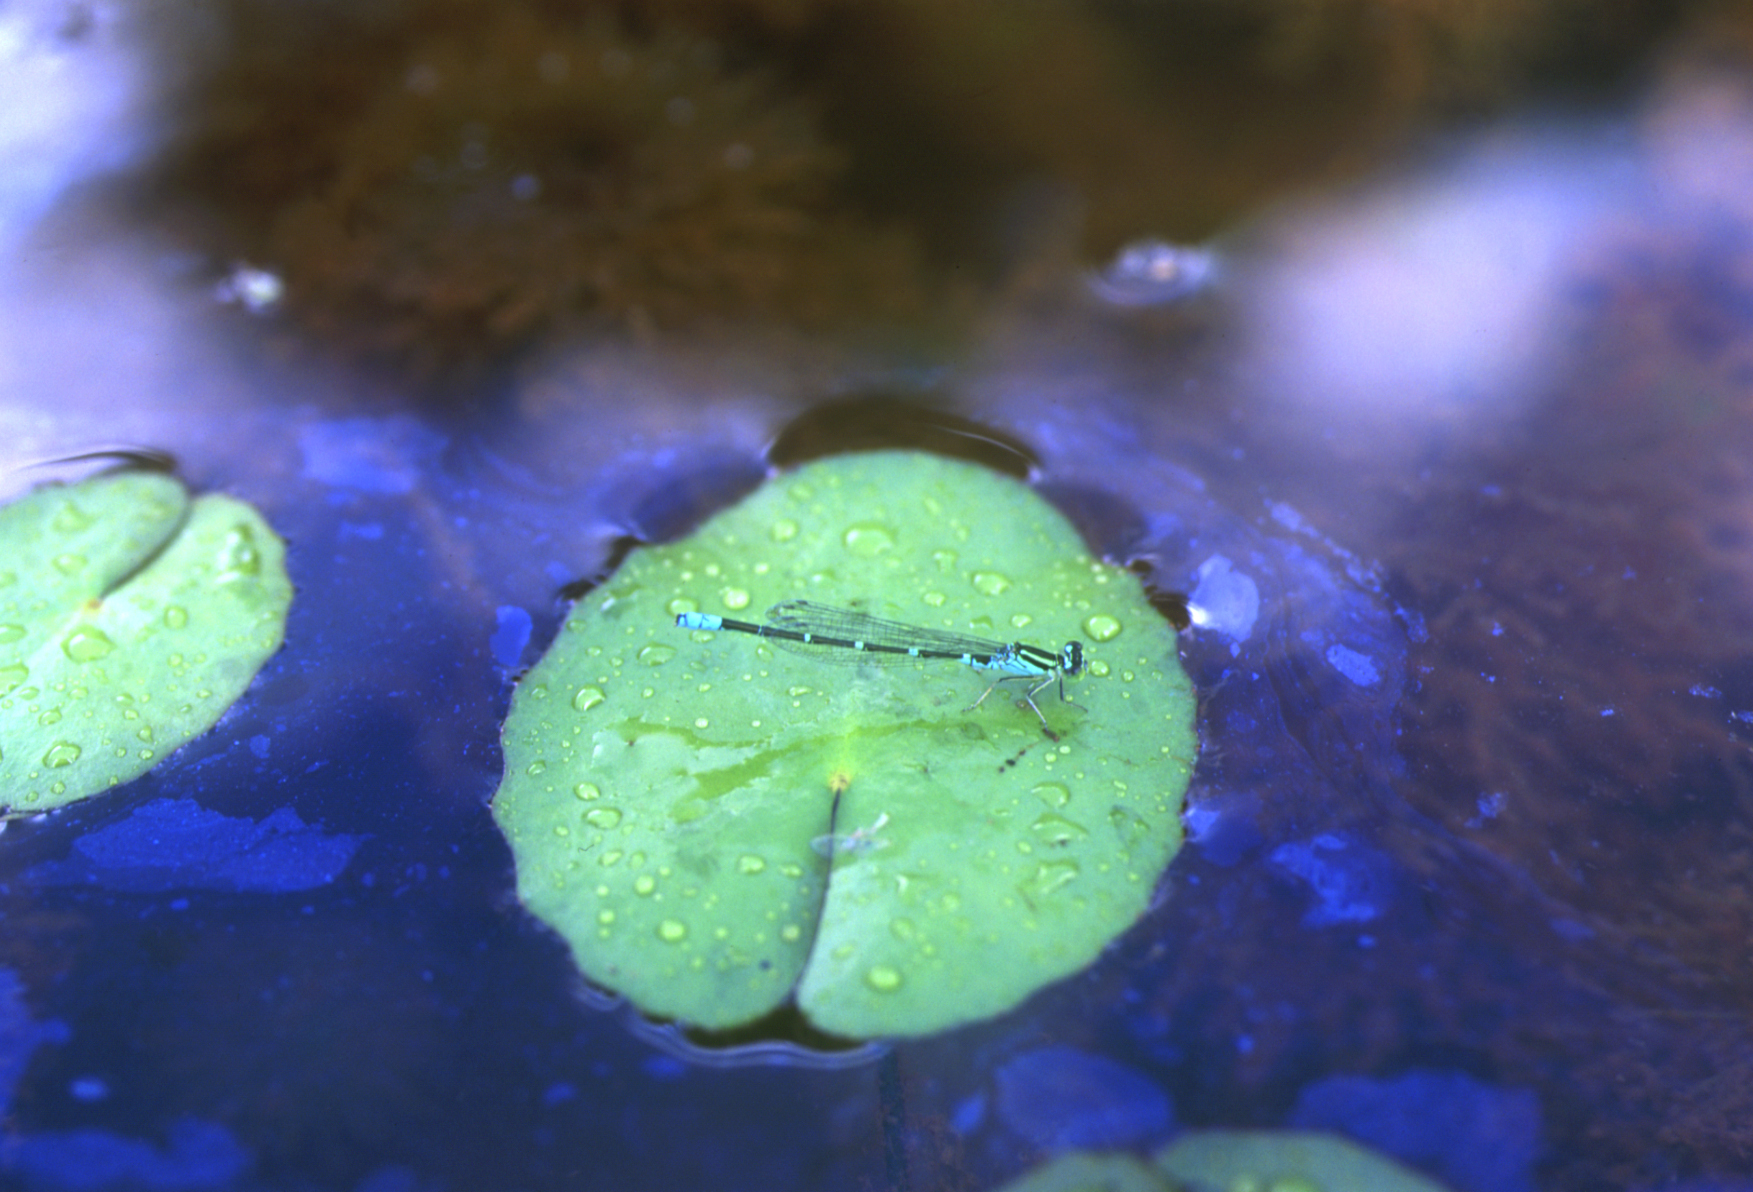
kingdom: Animalia
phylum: Arthropoda
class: Insecta
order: Odonata
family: Coenagrionidae
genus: Paracercion
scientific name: Paracercion sieboldii
